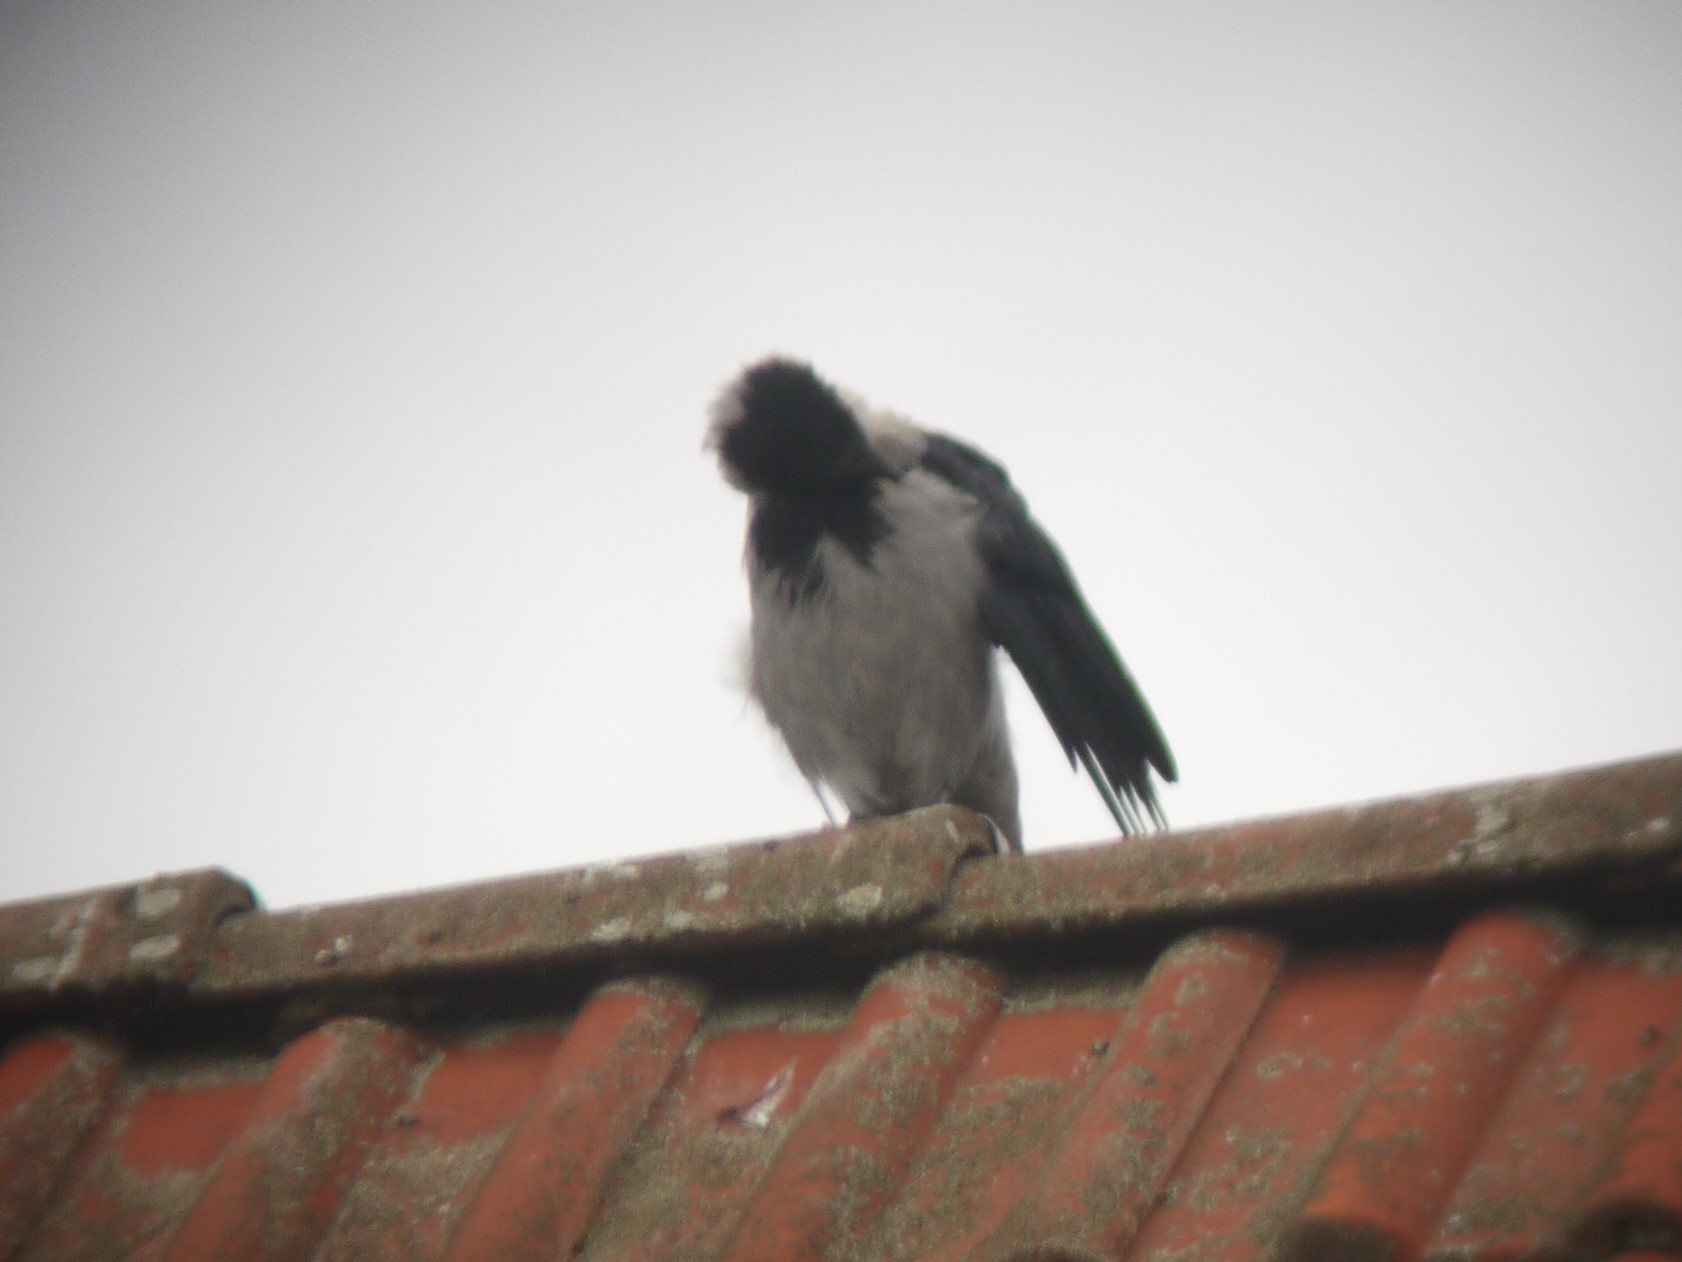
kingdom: Animalia
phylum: Chordata
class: Aves
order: Passeriformes
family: Corvidae
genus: Corvus
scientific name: Corvus cornix
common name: Hooded crow
